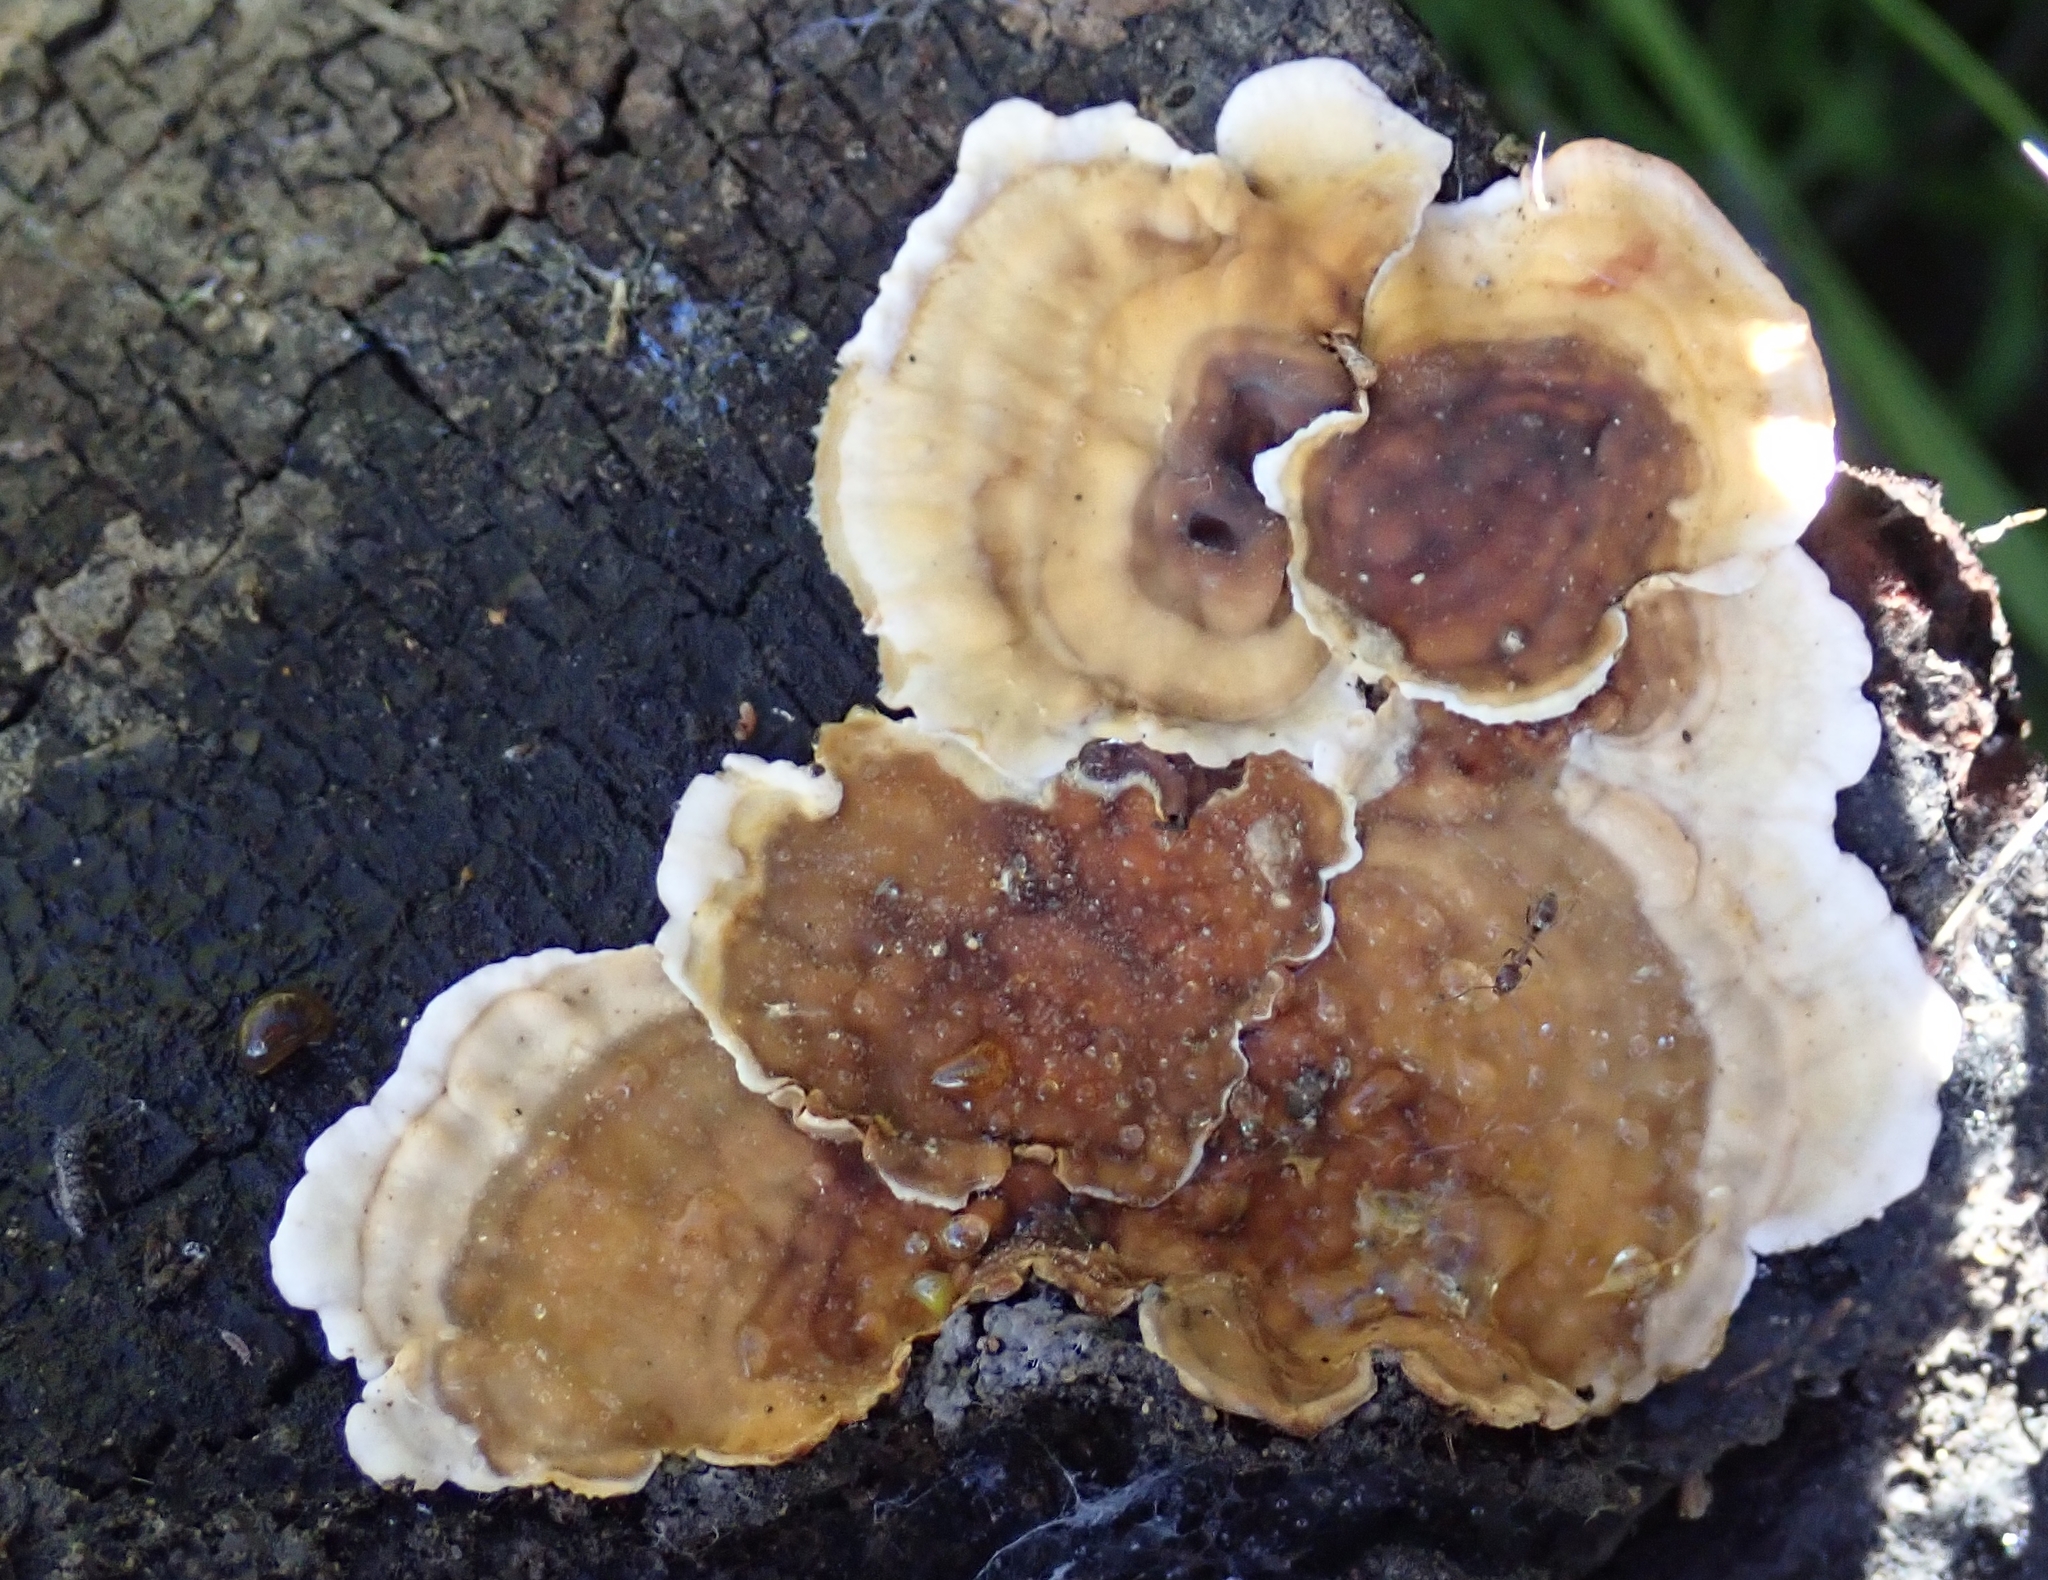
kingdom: Fungi
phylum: Basidiomycota
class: Agaricomycetes
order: Russulales
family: Stereaceae
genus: Stereum
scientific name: Stereum hirsutum
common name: Hairy curtain crust
